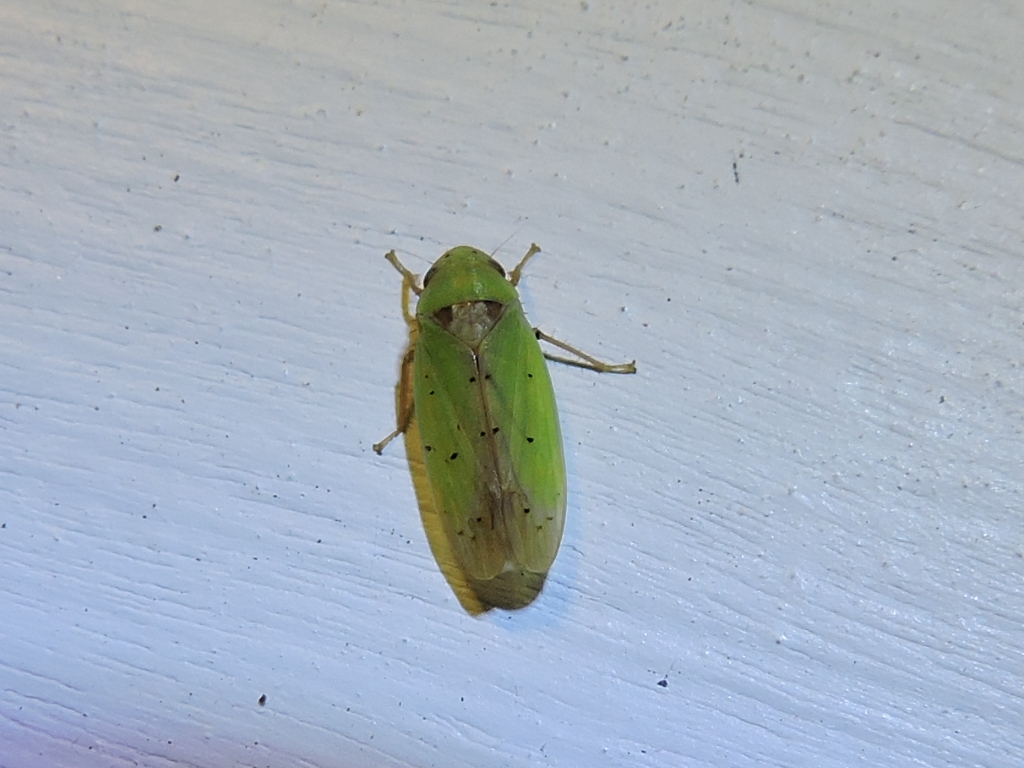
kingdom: Animalia
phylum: Arthropoda
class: Insecta
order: Hemiptera
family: Cicadellidae
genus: Ponana
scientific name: Ponana
